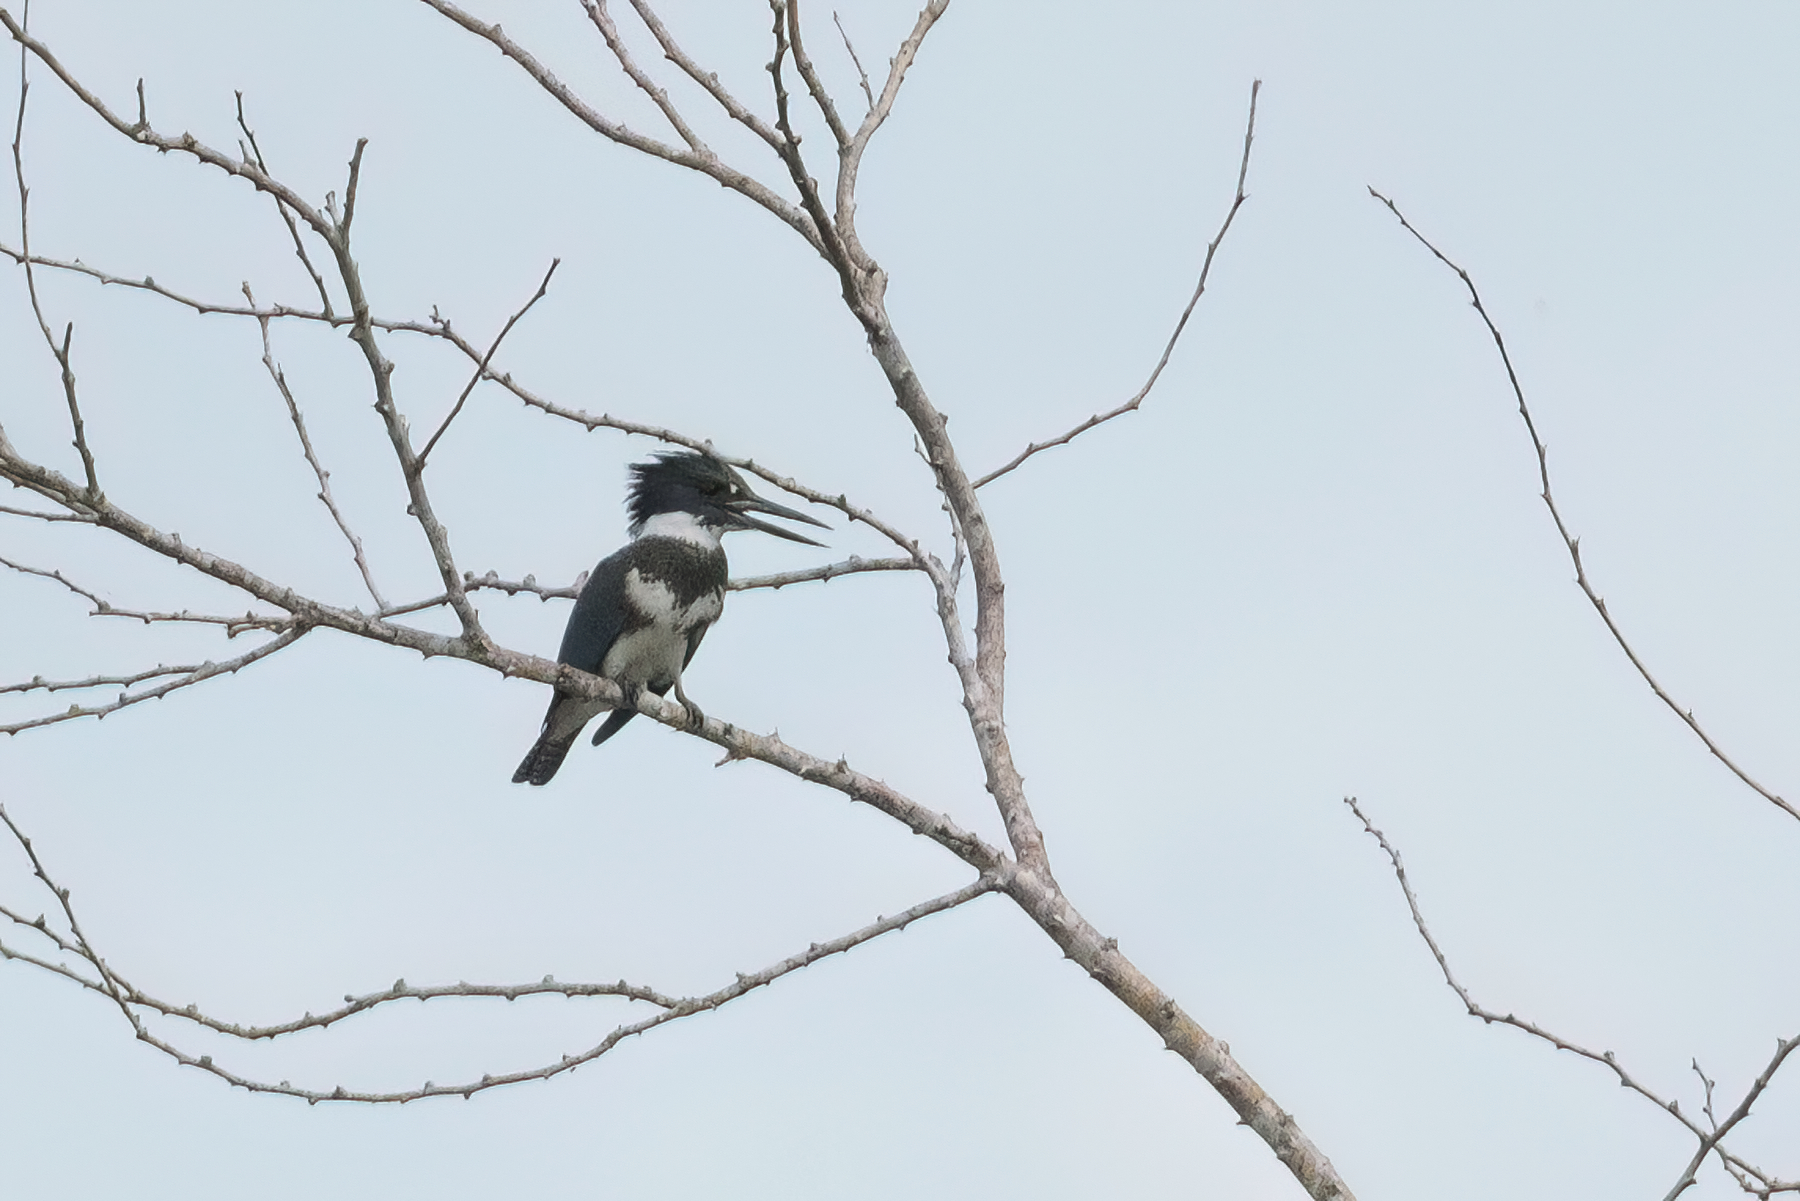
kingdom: Animalia
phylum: Chordata
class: Aves
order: Coraciiformes
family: Alcedinidae
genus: Megaceryle
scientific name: Megaceryle alcyon
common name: Belted kingfisher
